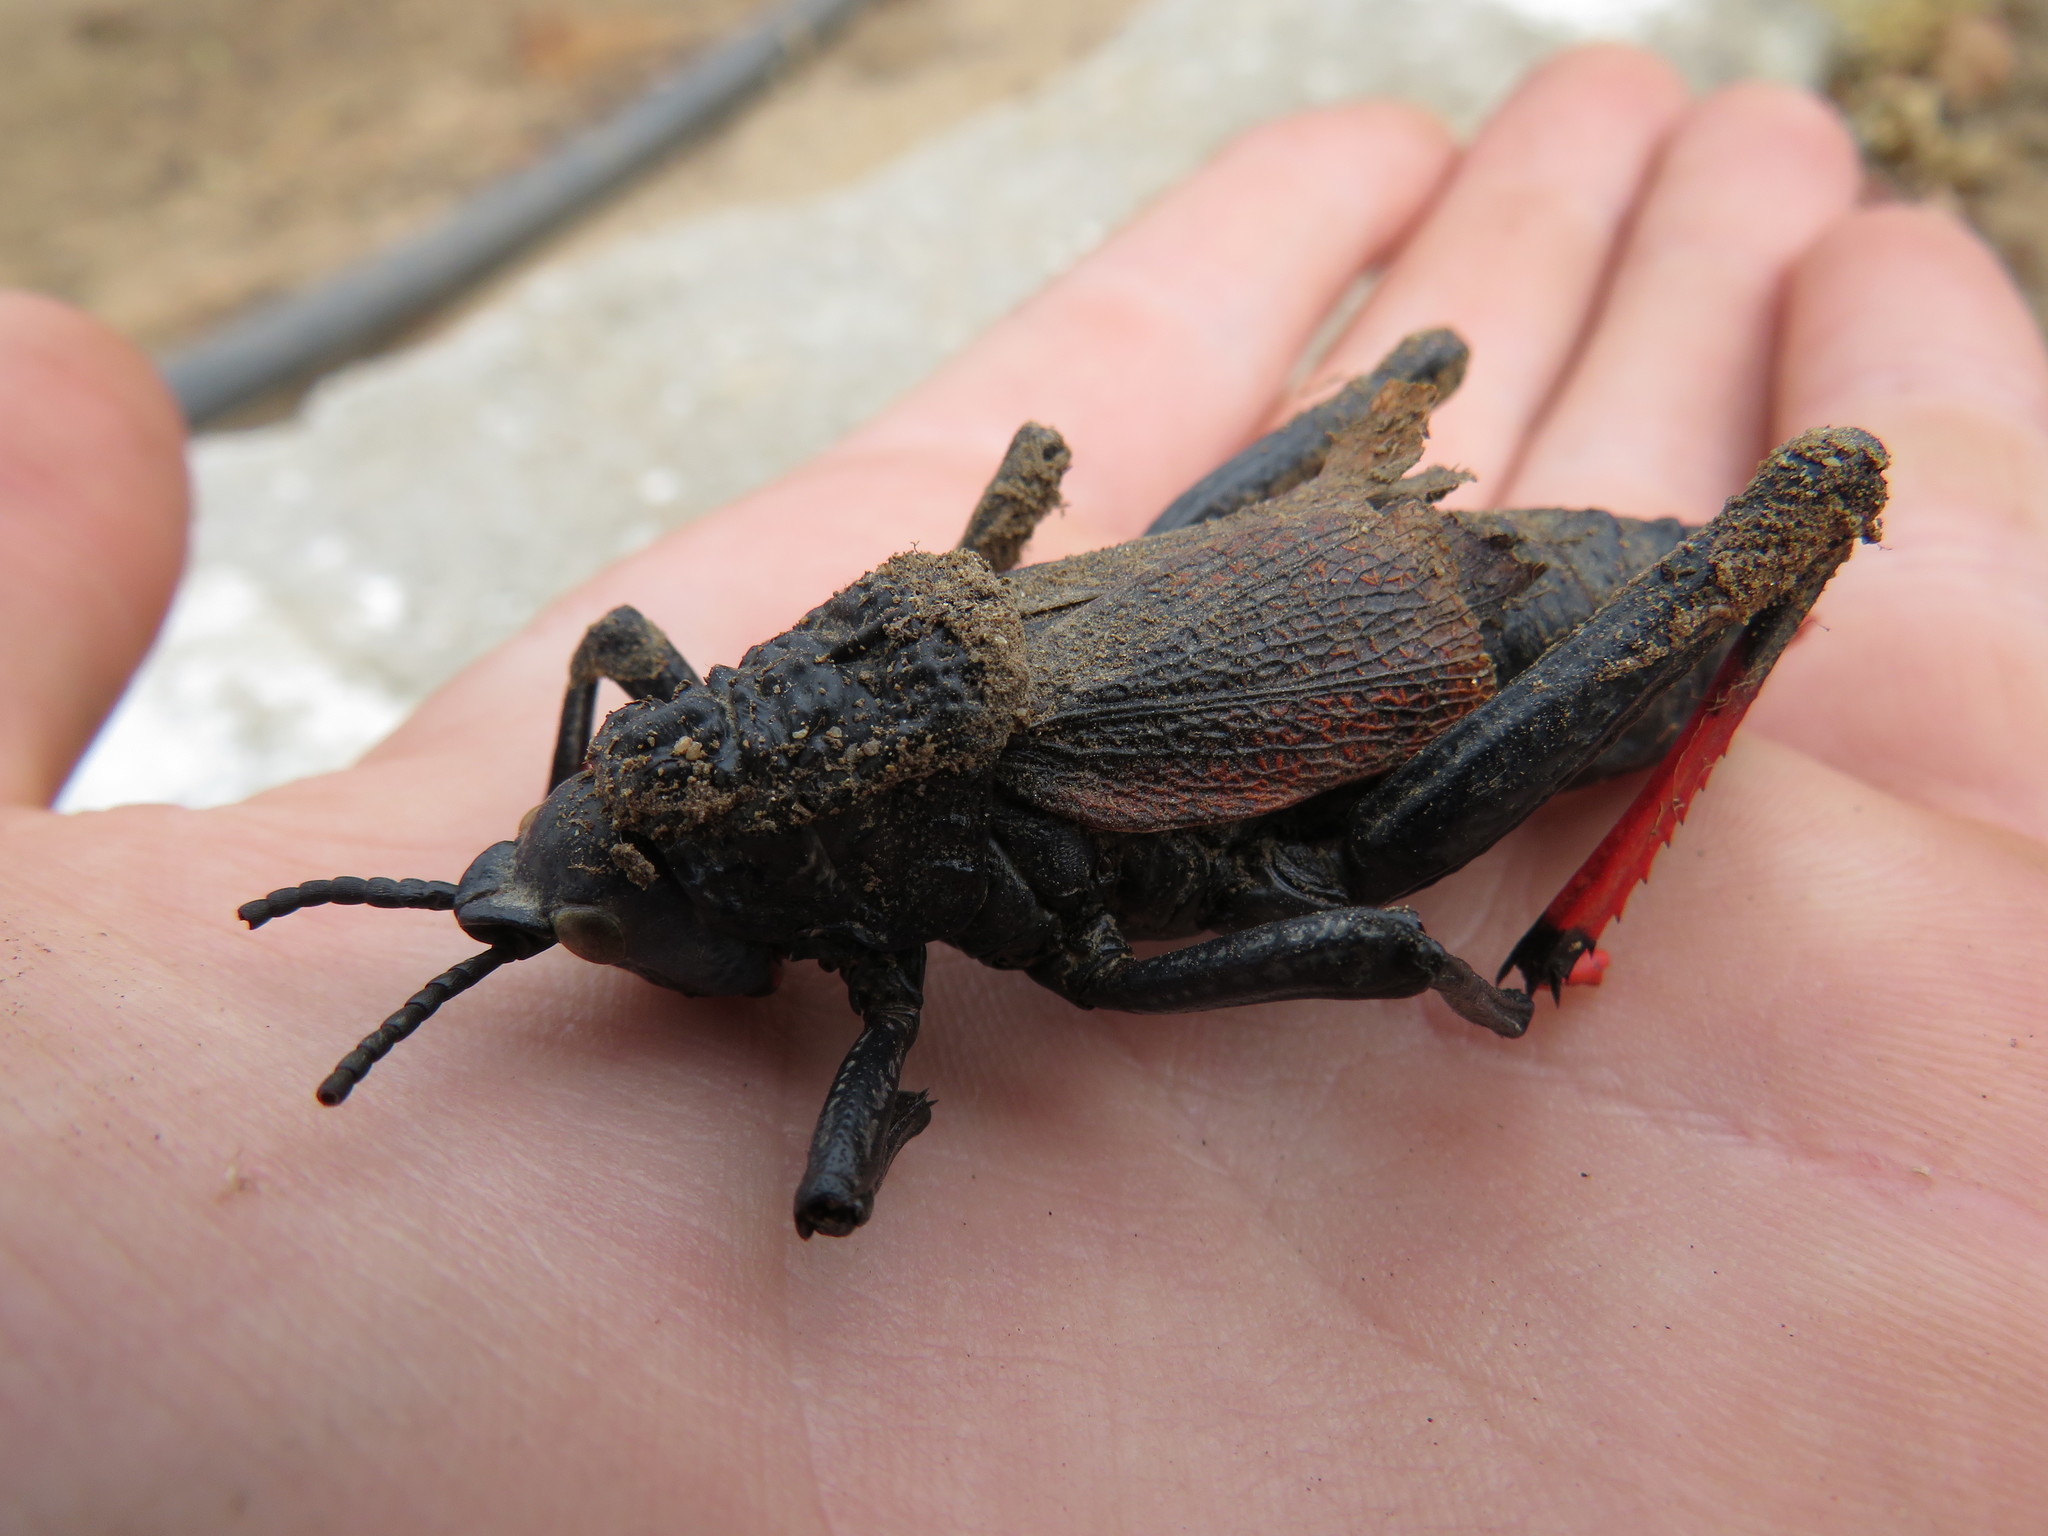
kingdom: Animalia
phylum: Arthropoda
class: Insecta
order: Orthoptera
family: Pyrgomorphidae
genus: Dictyophorus
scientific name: Dictyophorus spumans
